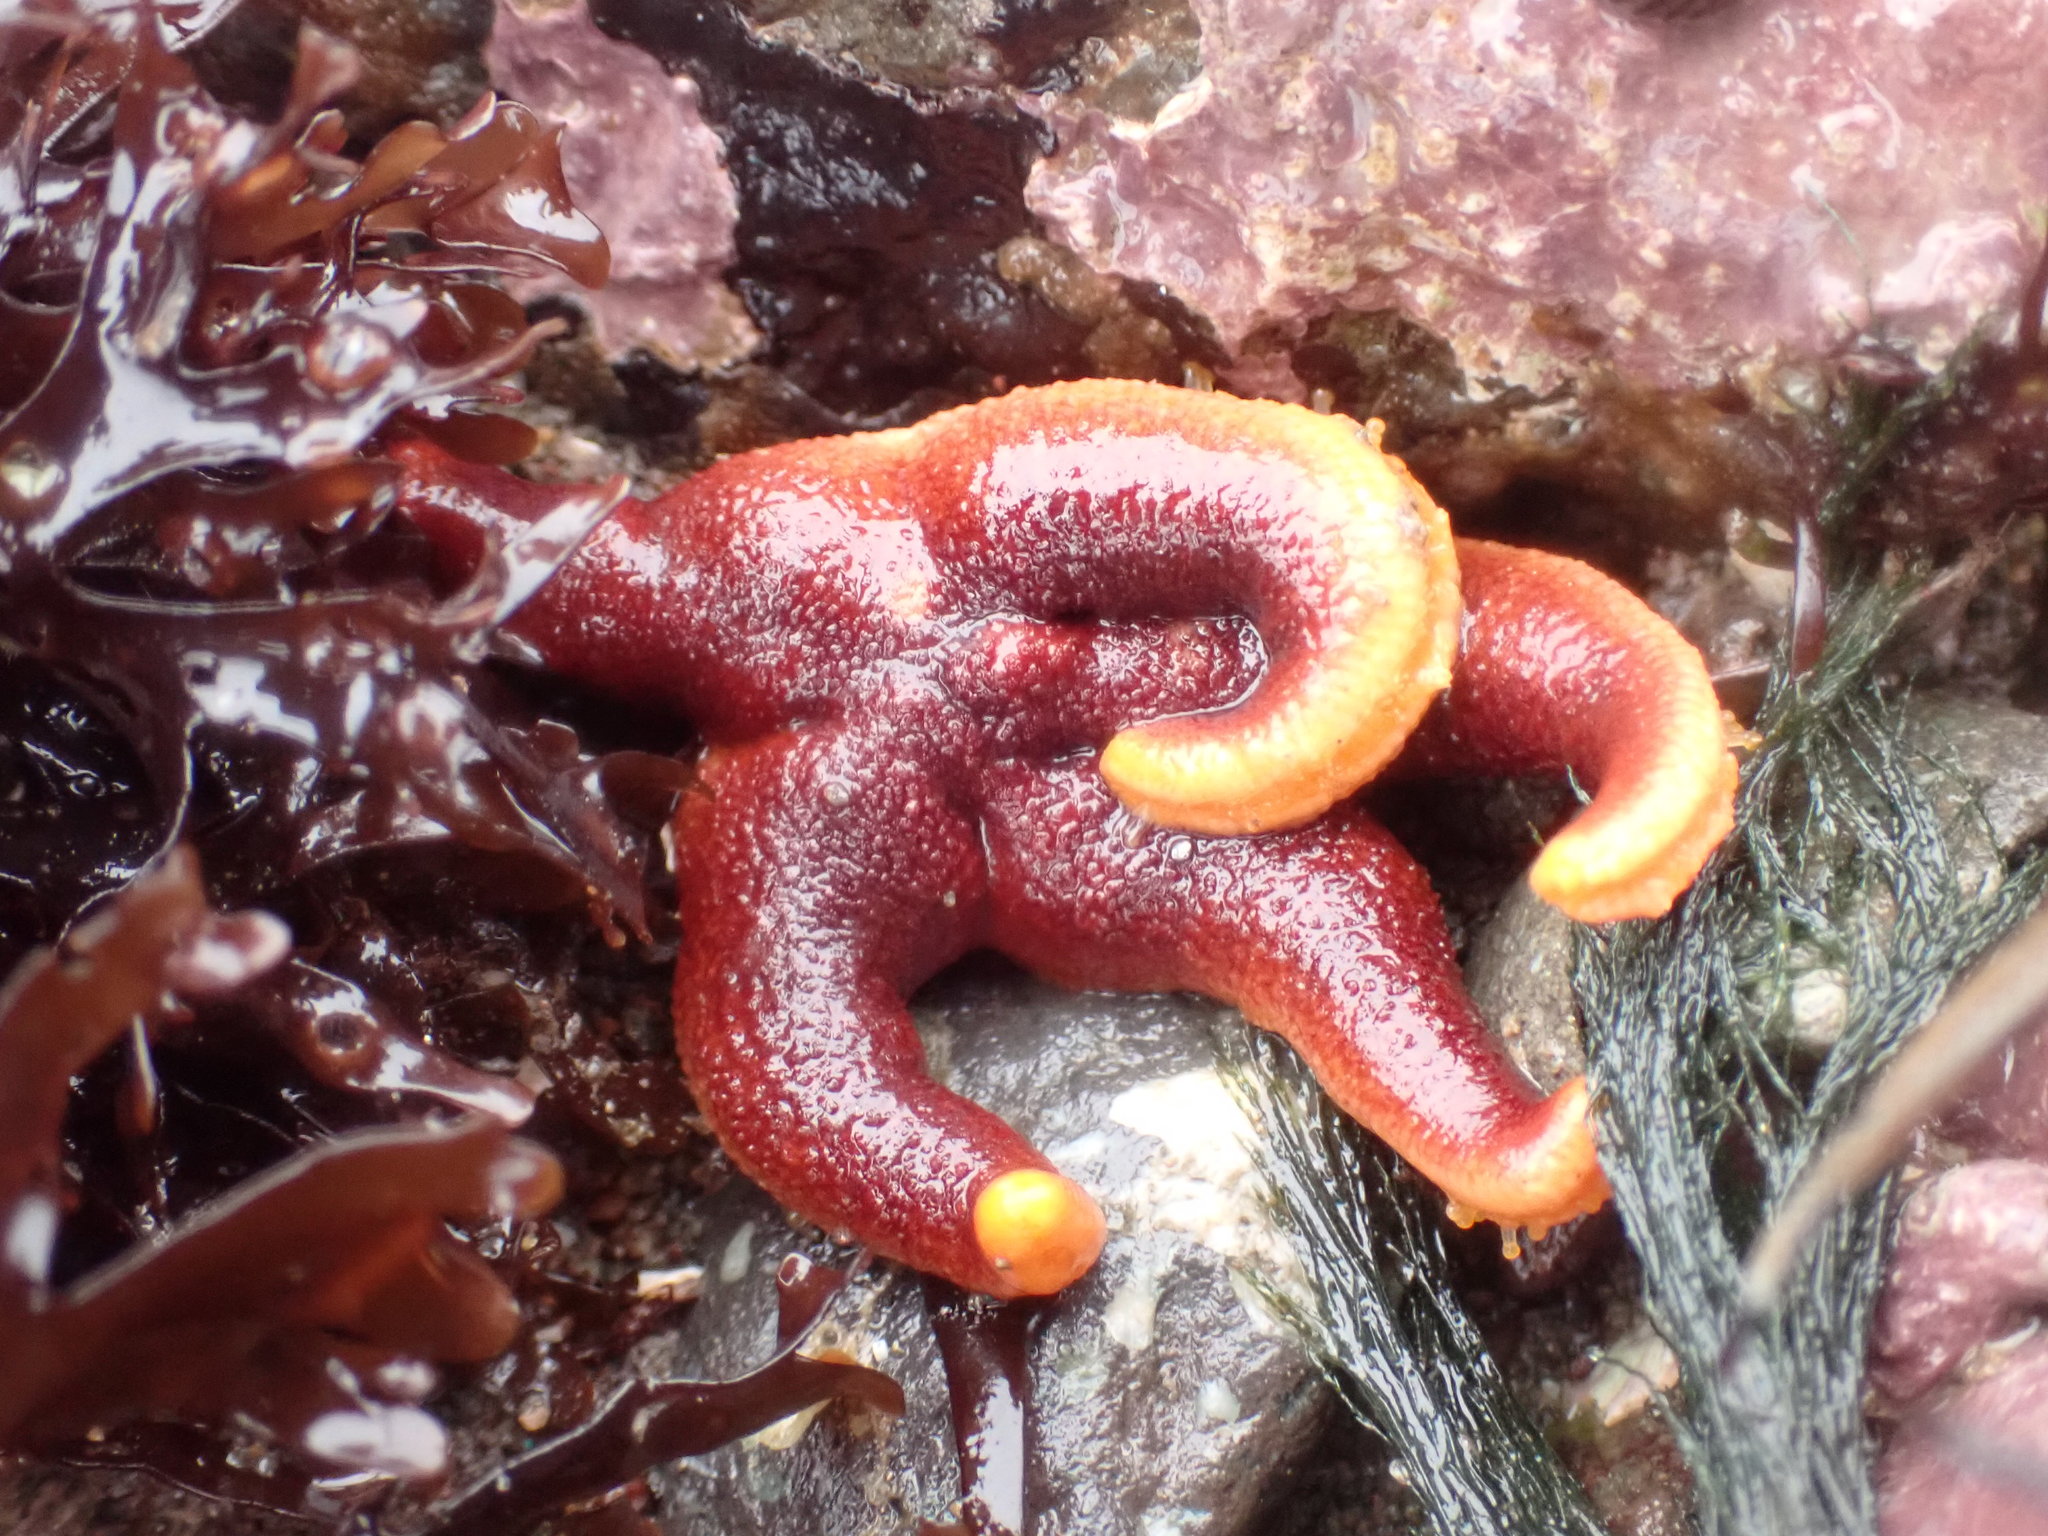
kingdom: Animalia
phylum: Echinodermata
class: Asteroidea
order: Spinulosida
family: Echinasteridae
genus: Henricia
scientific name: Henricia sanguinolenta
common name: Blood star
